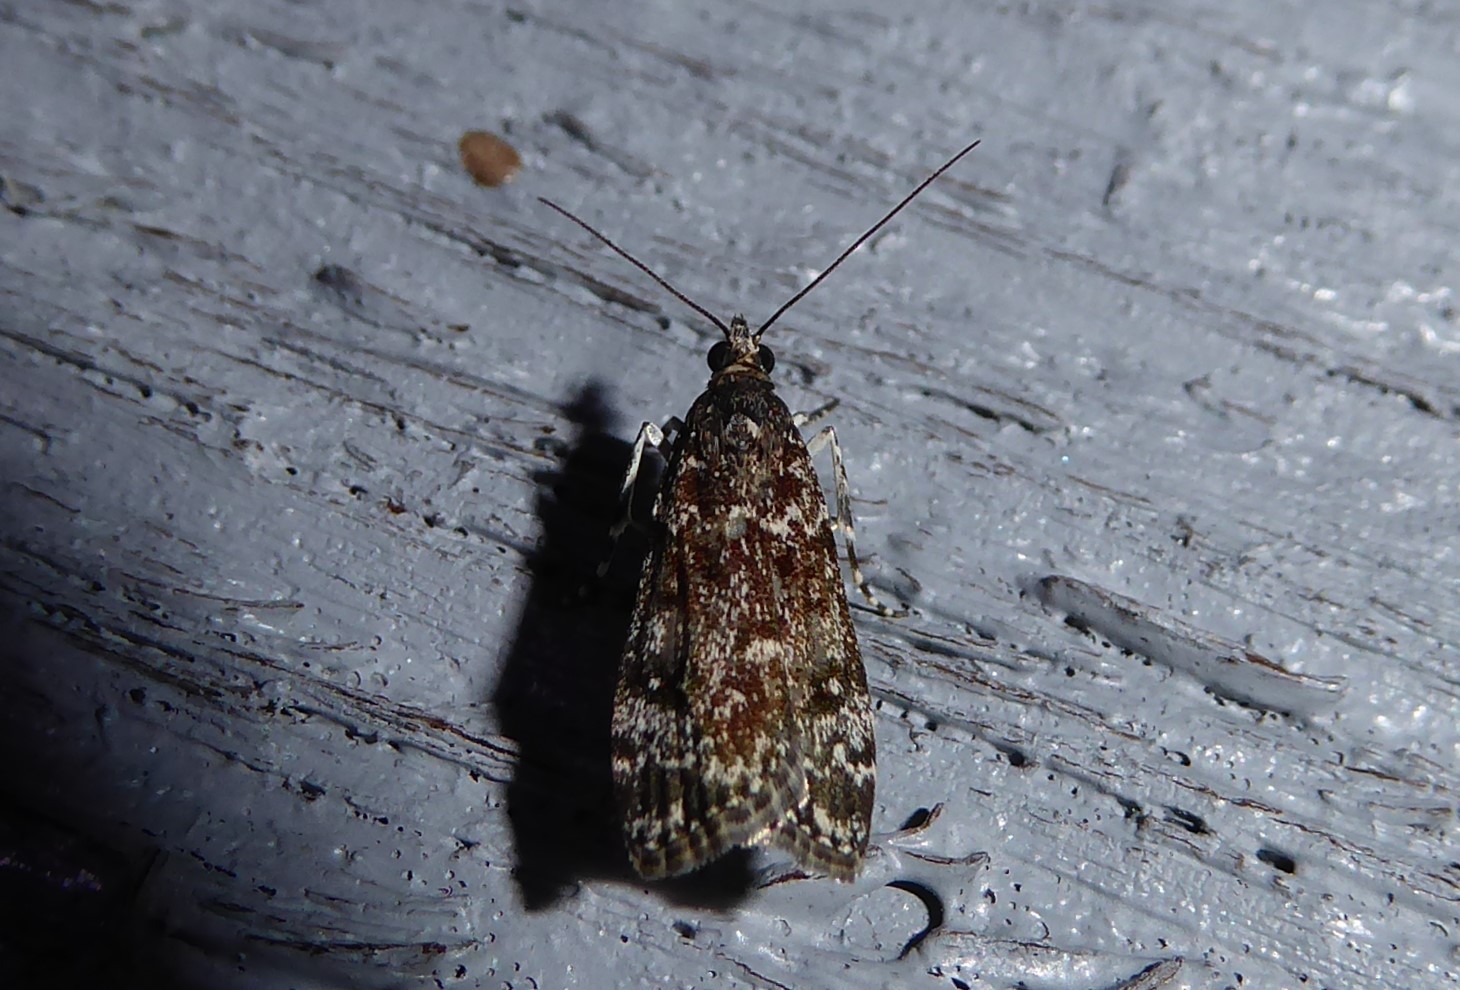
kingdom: Animalia
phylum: Arthropoda
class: Insecta
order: Lepidoptera
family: Crambidae
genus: Eudonia
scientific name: Eudonia philerga
